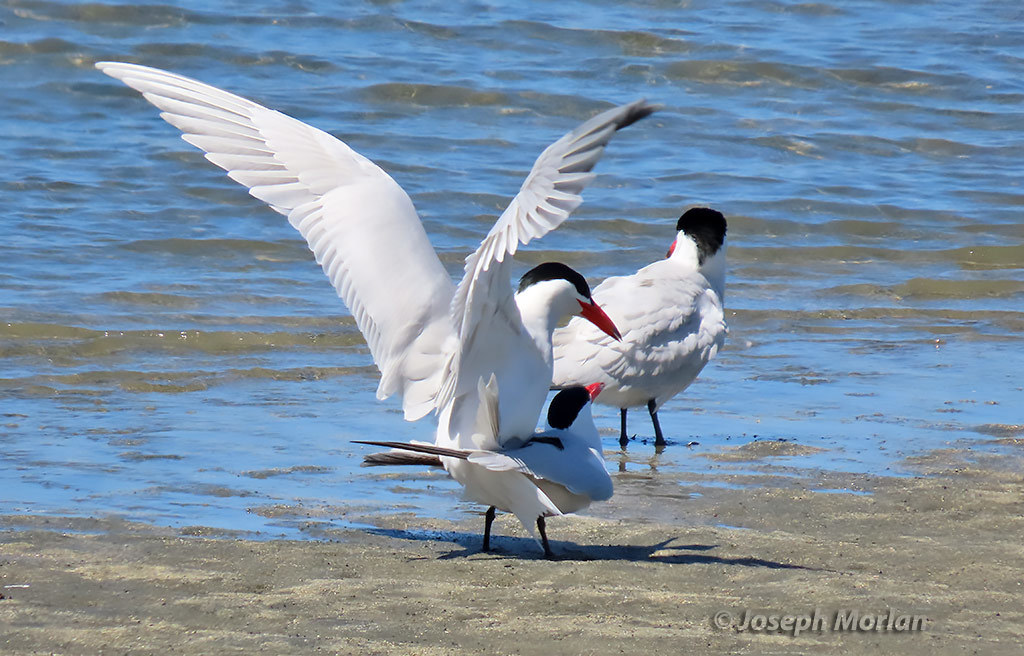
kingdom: Animalia
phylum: Chordata
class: Aves
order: Charadriiformes
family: Laridae
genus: Hydroprogne
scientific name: Hydroprogne caspia
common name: Caspian tern
